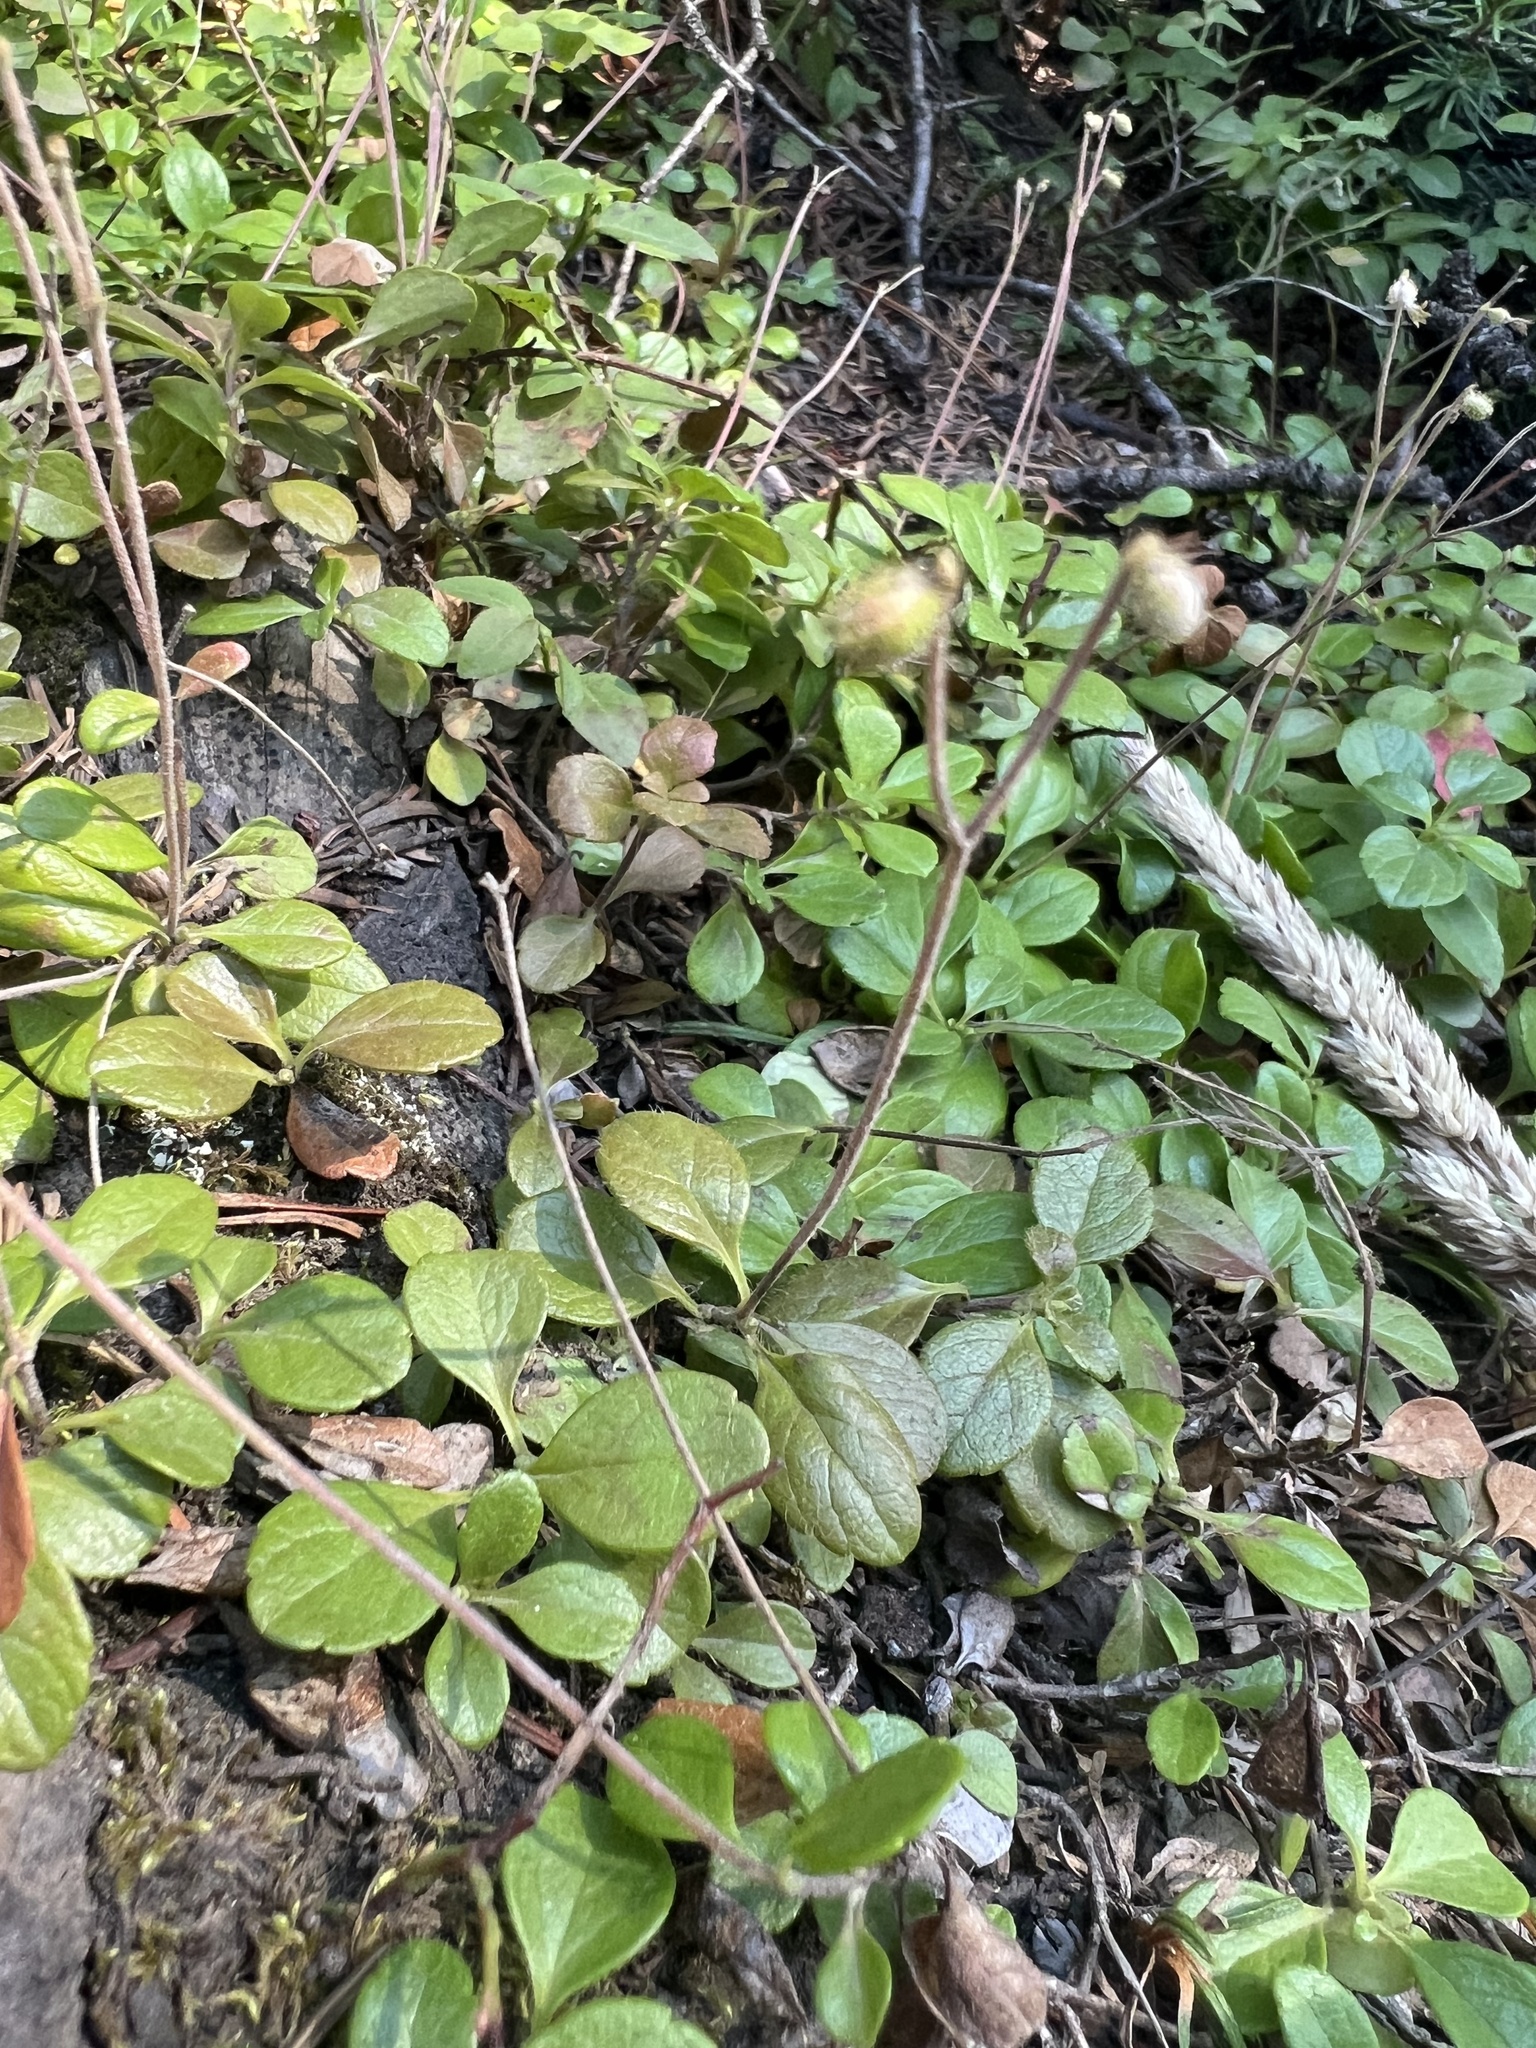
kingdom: Plantae
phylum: Tracheophyta
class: Magnoliopsida
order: Dipsacales
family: Caprifoliaceae
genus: Linnaea
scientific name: Linnaea borealis
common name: Twinflower
